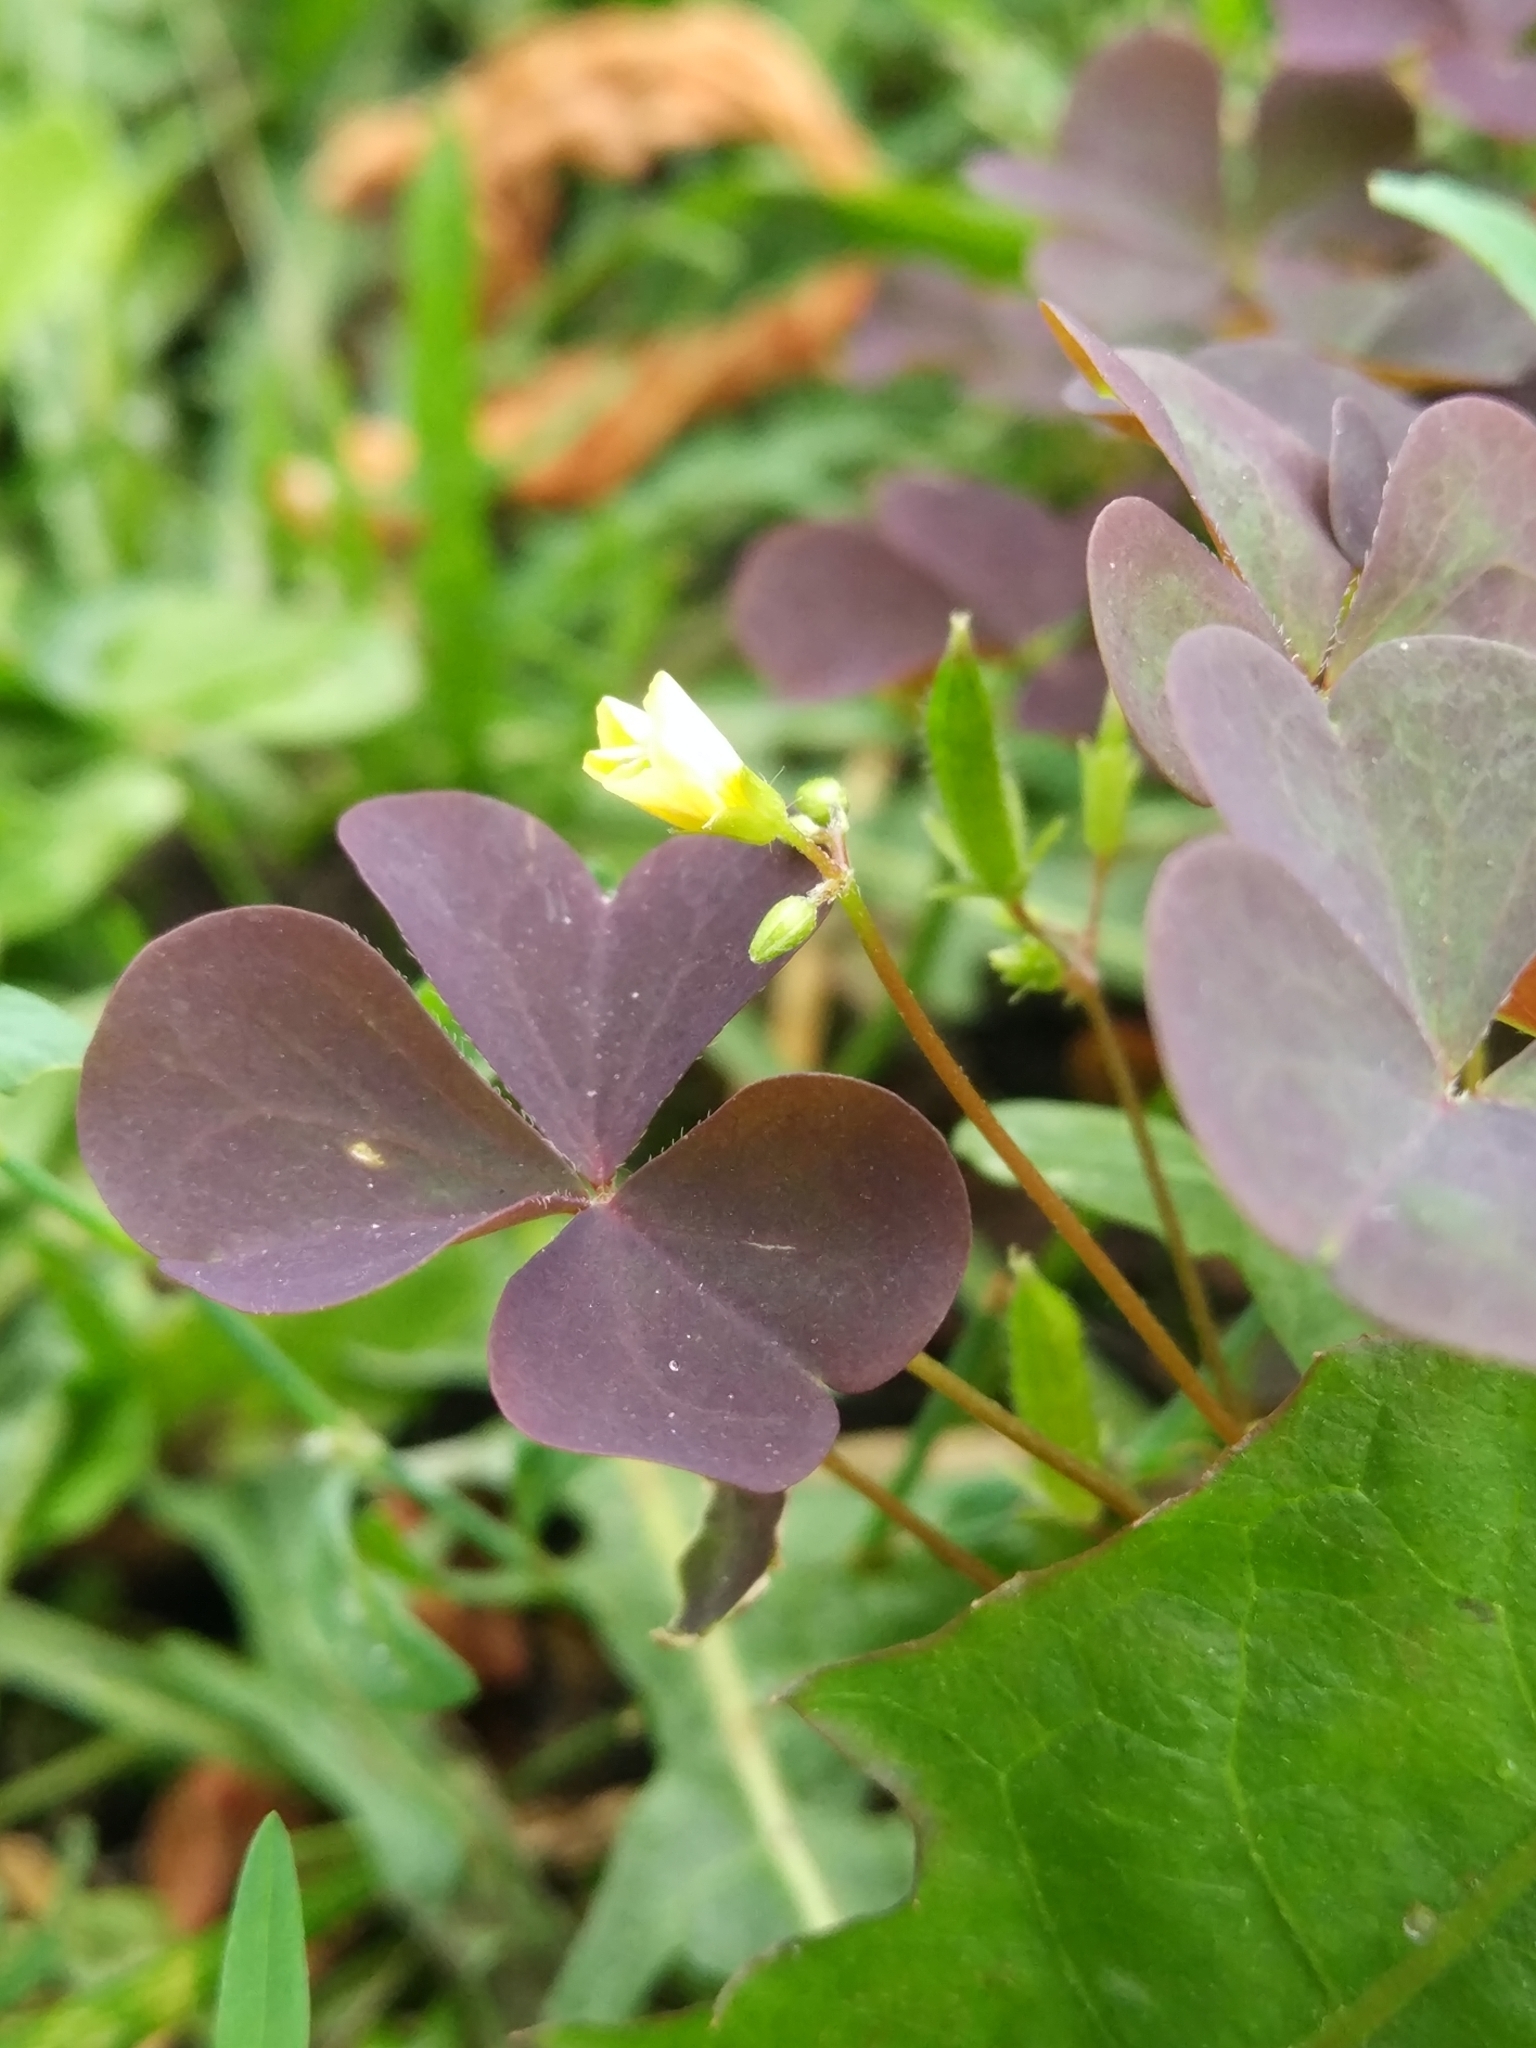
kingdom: Plantae
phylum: Tracheophyta
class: Magnoliopsida
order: Oxalidales
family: Oxalidaceae
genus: Oxalis
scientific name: Oxalis stricta
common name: Upright yellow-sorrel
